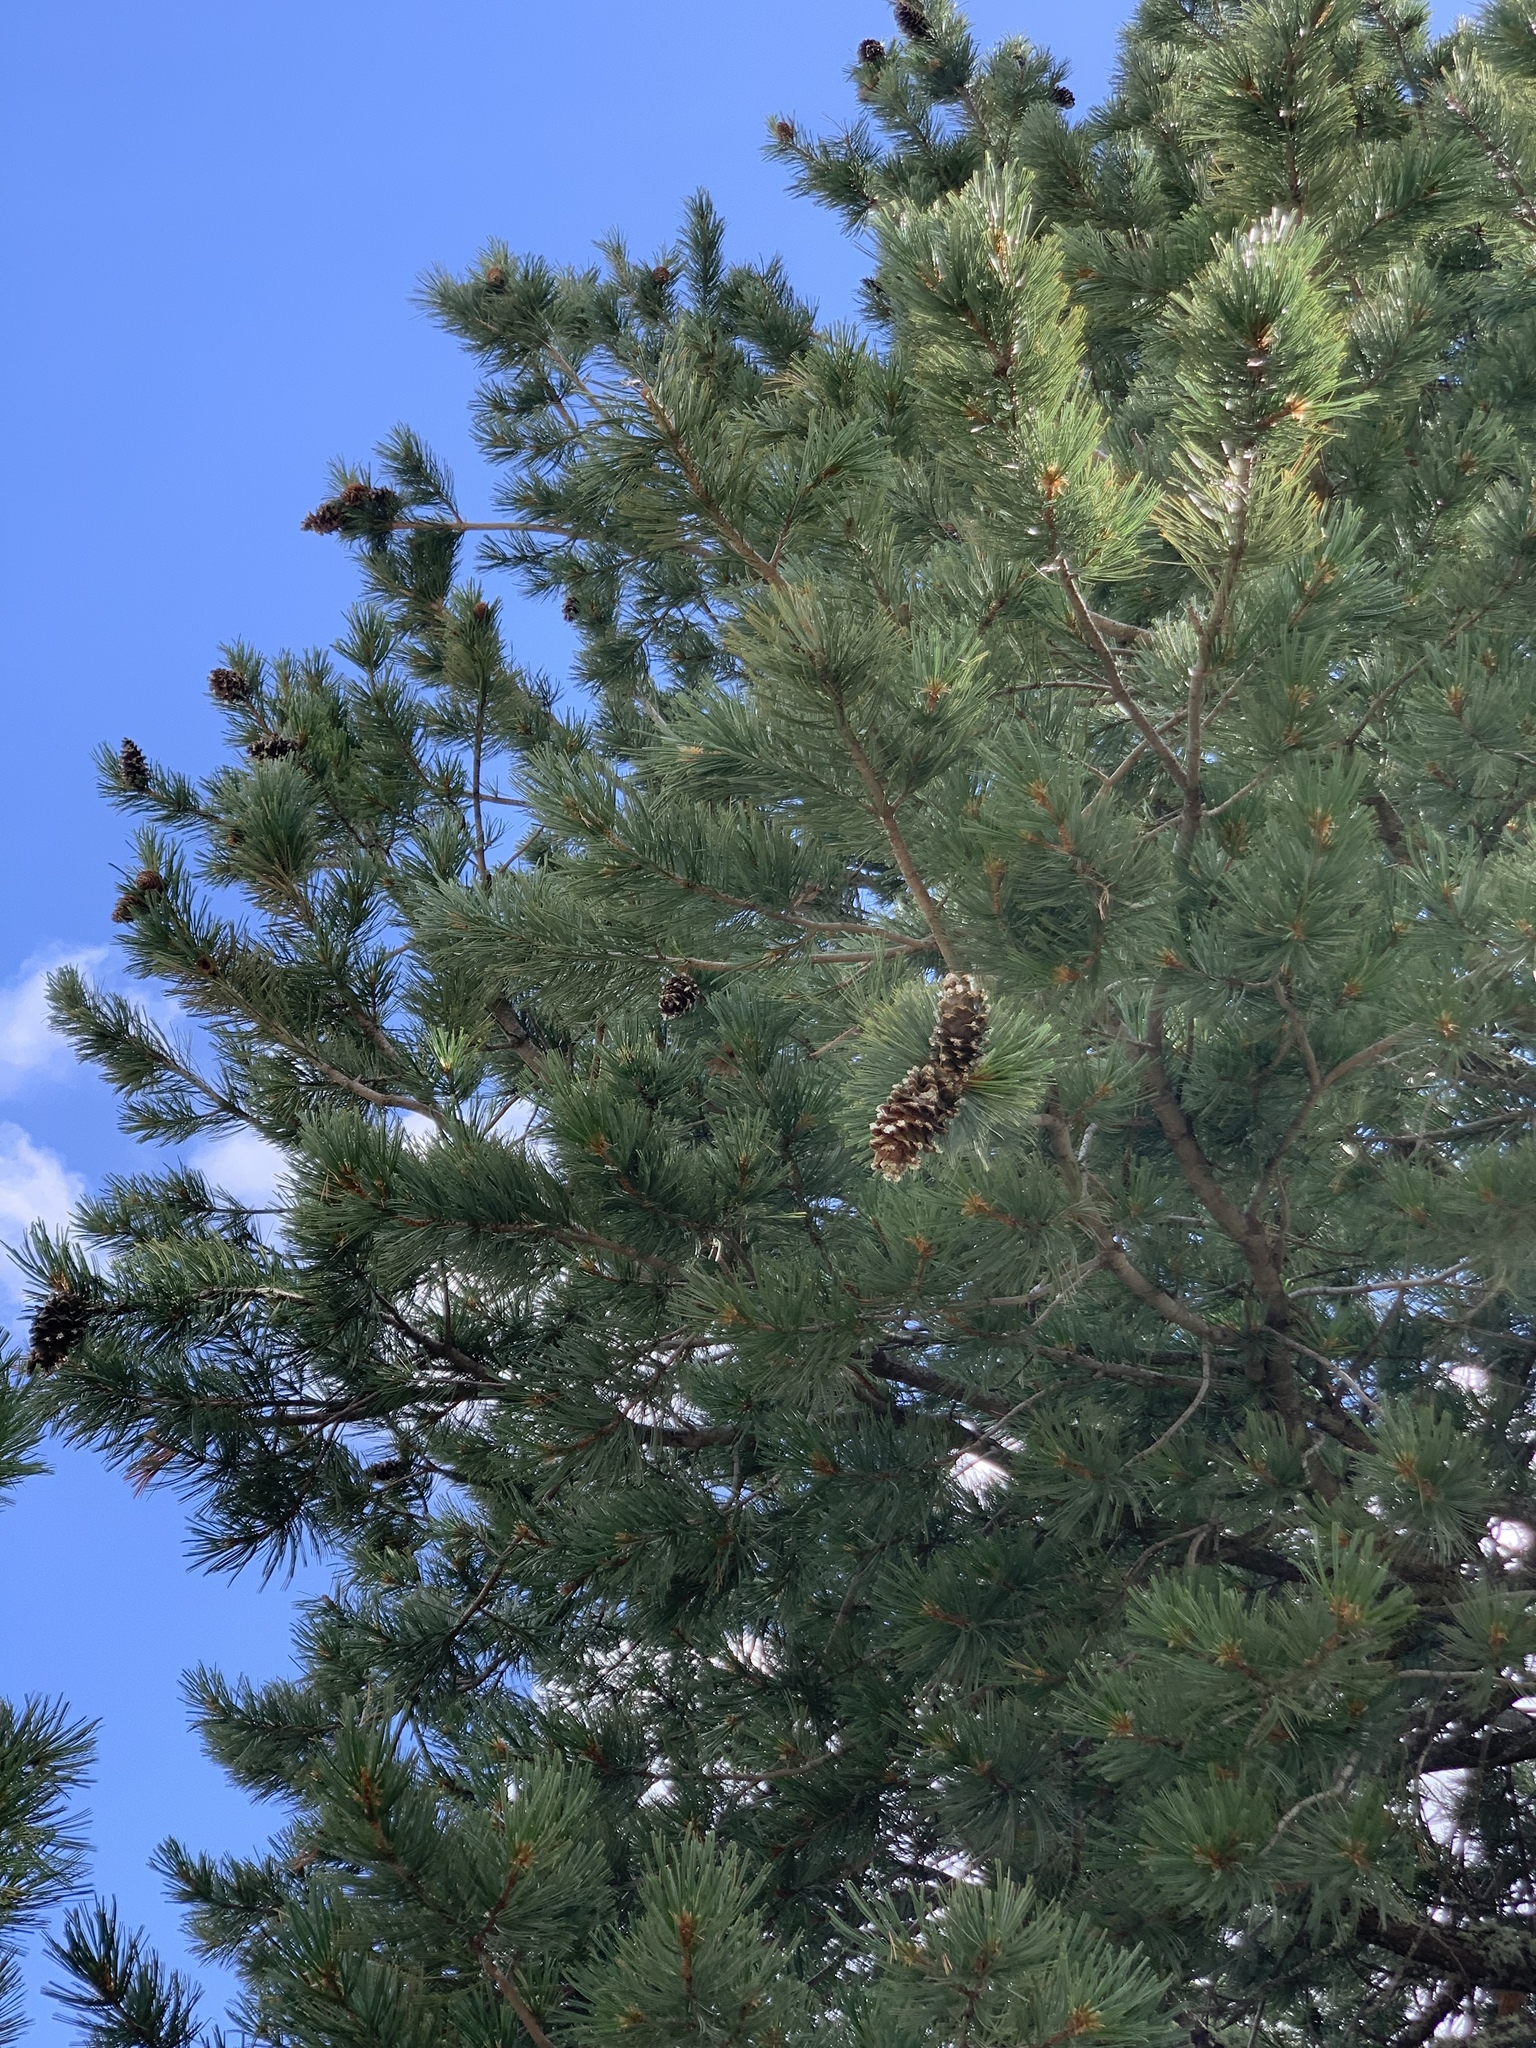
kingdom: Plantae
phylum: Tracheophyta
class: Pinopsida
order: Pinales
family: Pinaceae
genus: Pinus
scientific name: Pinus strobiformis
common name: Southwestern white pine
